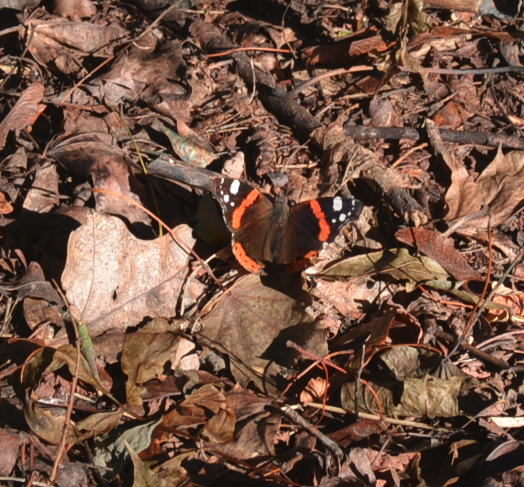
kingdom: Animalia
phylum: Arthropoda
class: Insecta
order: Lepidoptera
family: Nymphalidae
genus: Vanessa
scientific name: Vanessa atalanta
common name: Red admiral
